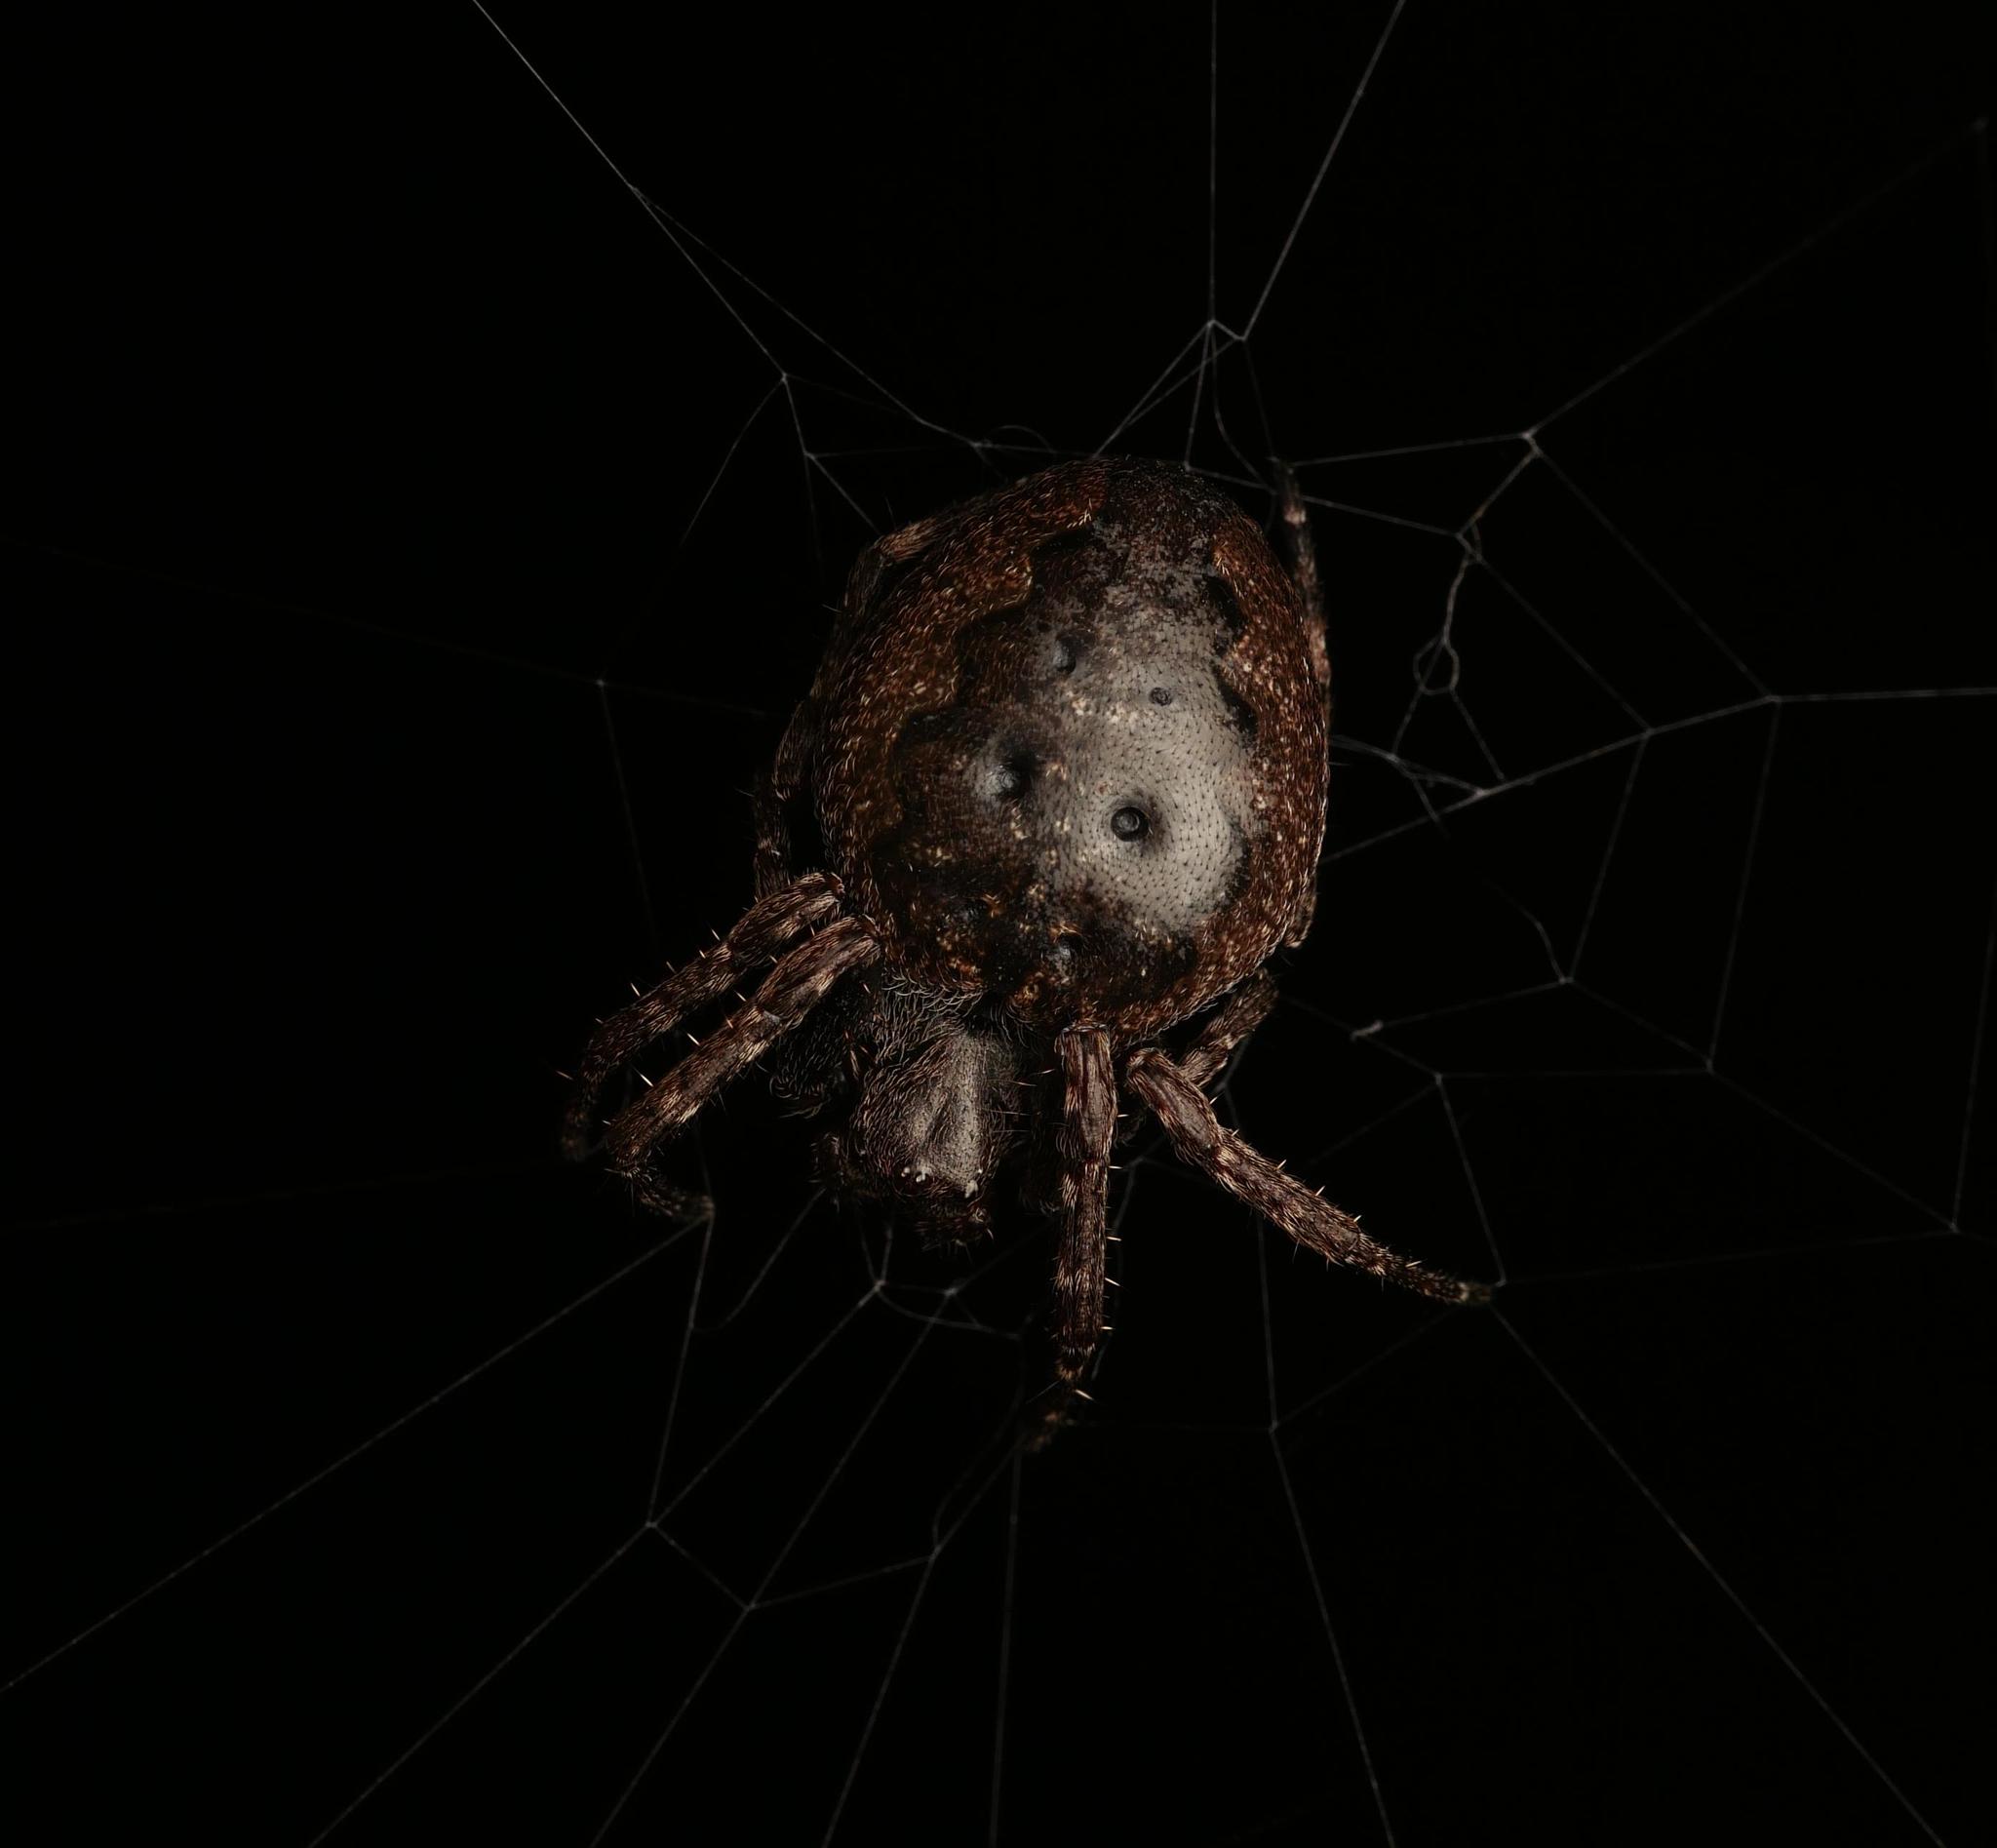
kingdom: Animalia
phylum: Arthropoda
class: Arachnida
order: Araneae
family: Araneidae
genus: Nuctenea
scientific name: Nuctenea umbratica
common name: Toad spider
